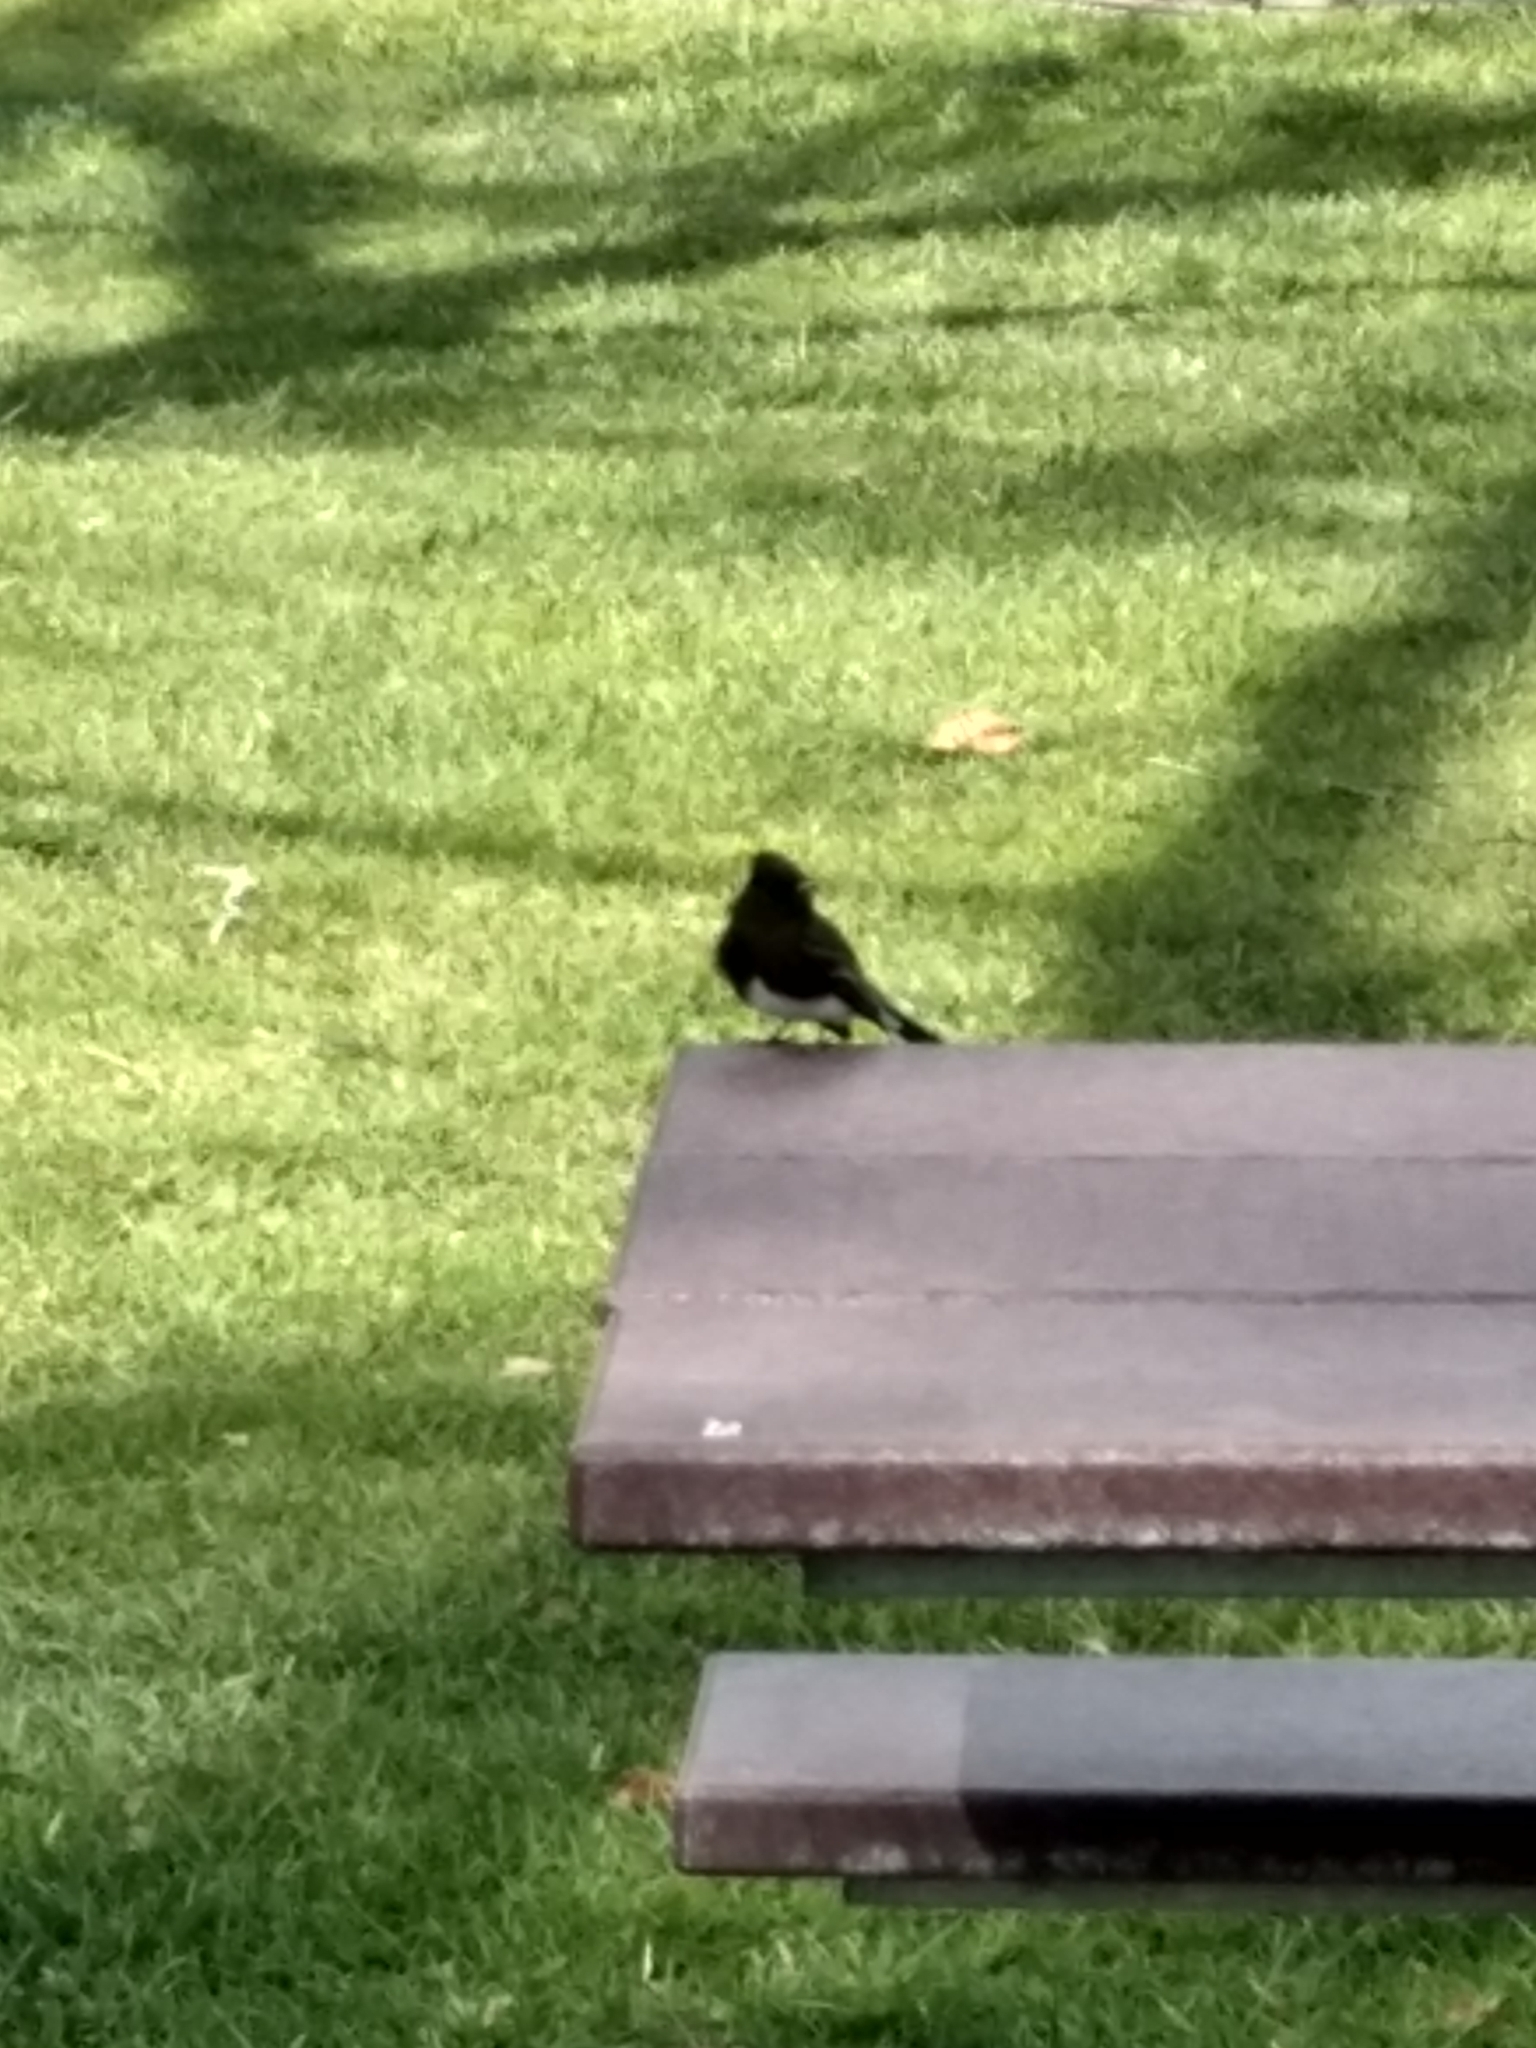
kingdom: Animalia
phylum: Chordata
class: Aves
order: Passeriformes
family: Tyrannidae
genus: Sayornis
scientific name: Sayornis nigricans
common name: Black phoebe
